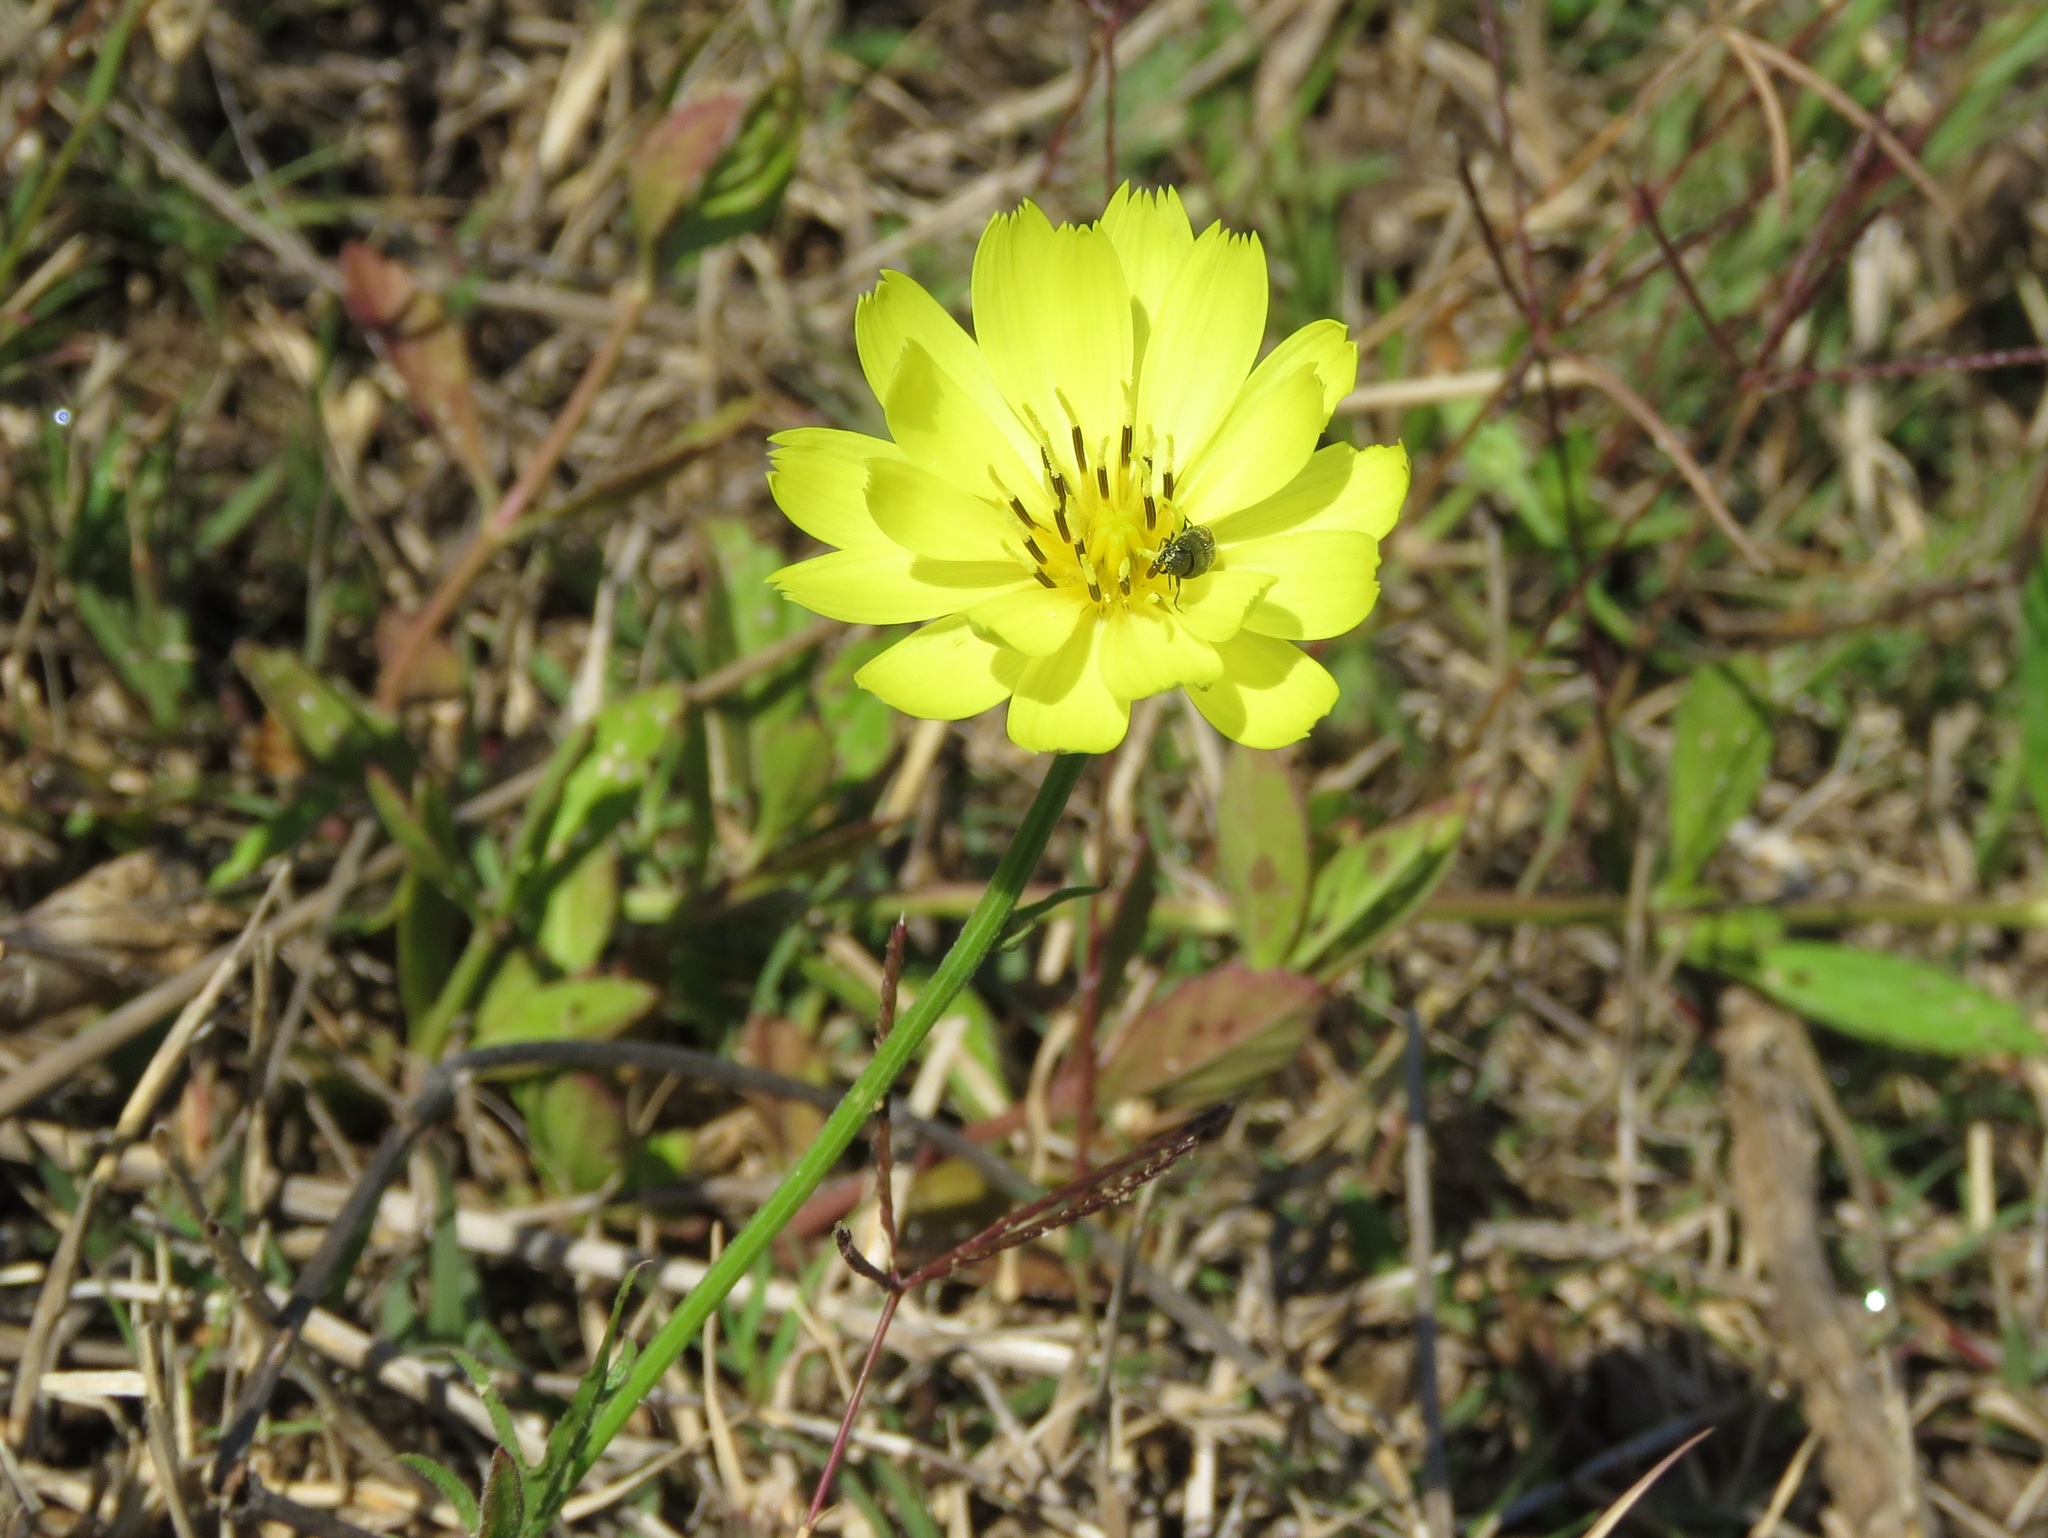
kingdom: Plantae
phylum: Tracheophyta
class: Magnoliopsida
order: Asterales
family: Asteraceae
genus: Pyrrhopappus
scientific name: Pyrrhopappus pauciflorus
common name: Texas false dandelion
